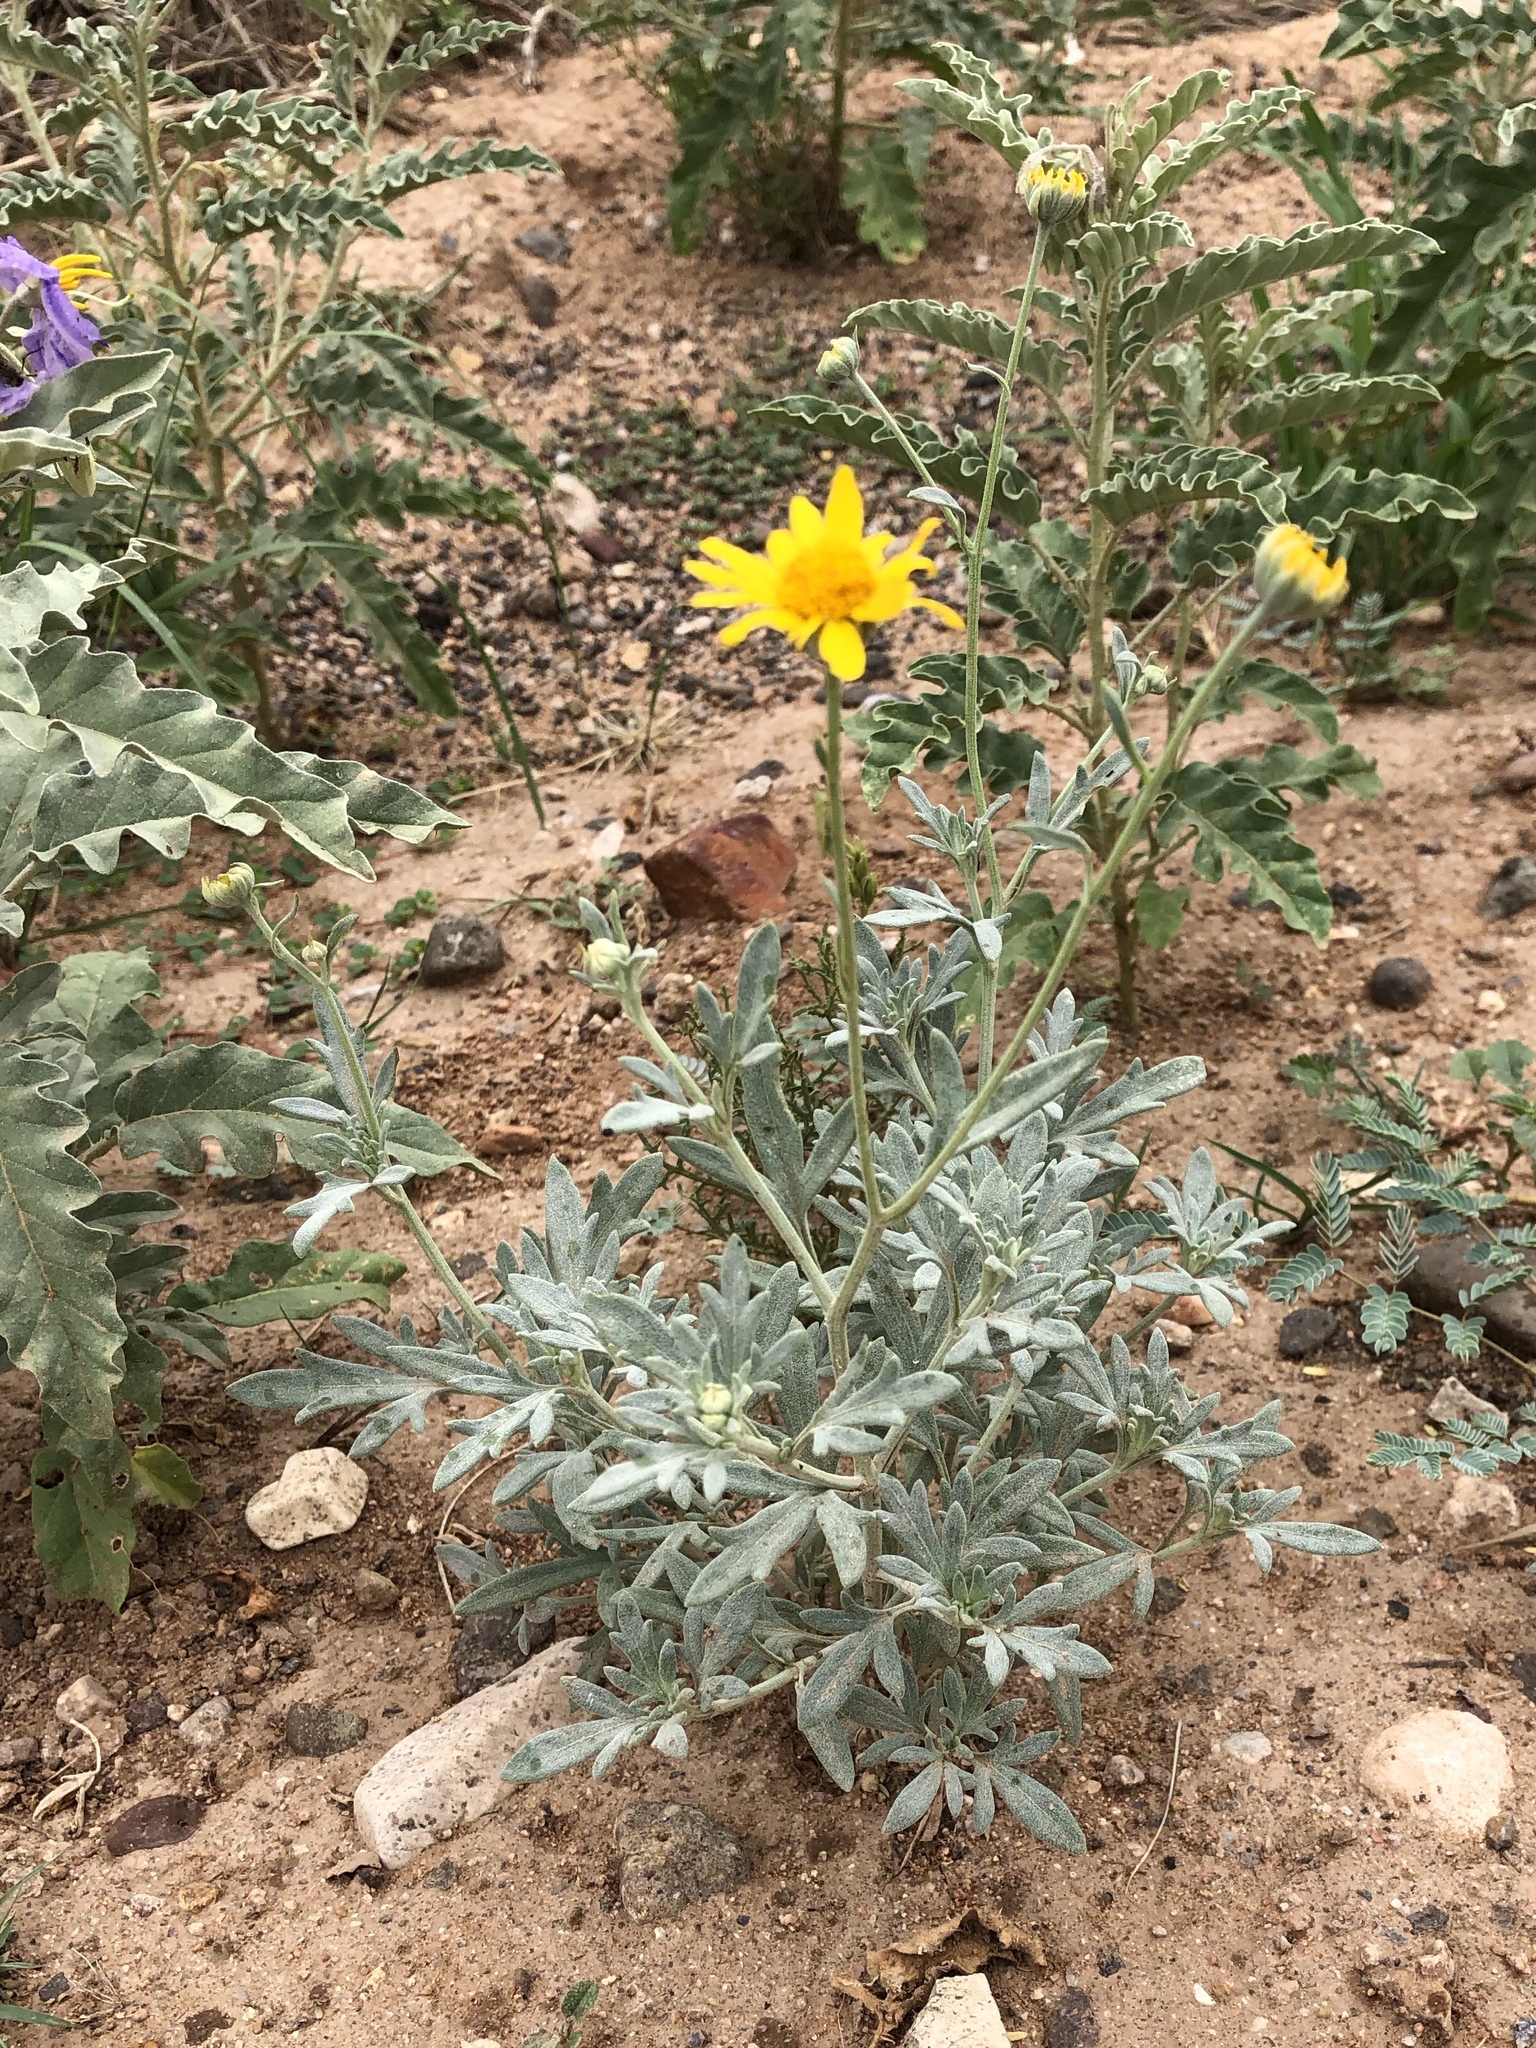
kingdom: Plantae
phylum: Tracheophyta
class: Magnoliopsida
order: Asterales
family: Asteraceae
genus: Picradeniopsis
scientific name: Picradeniopsis absinthifolia
